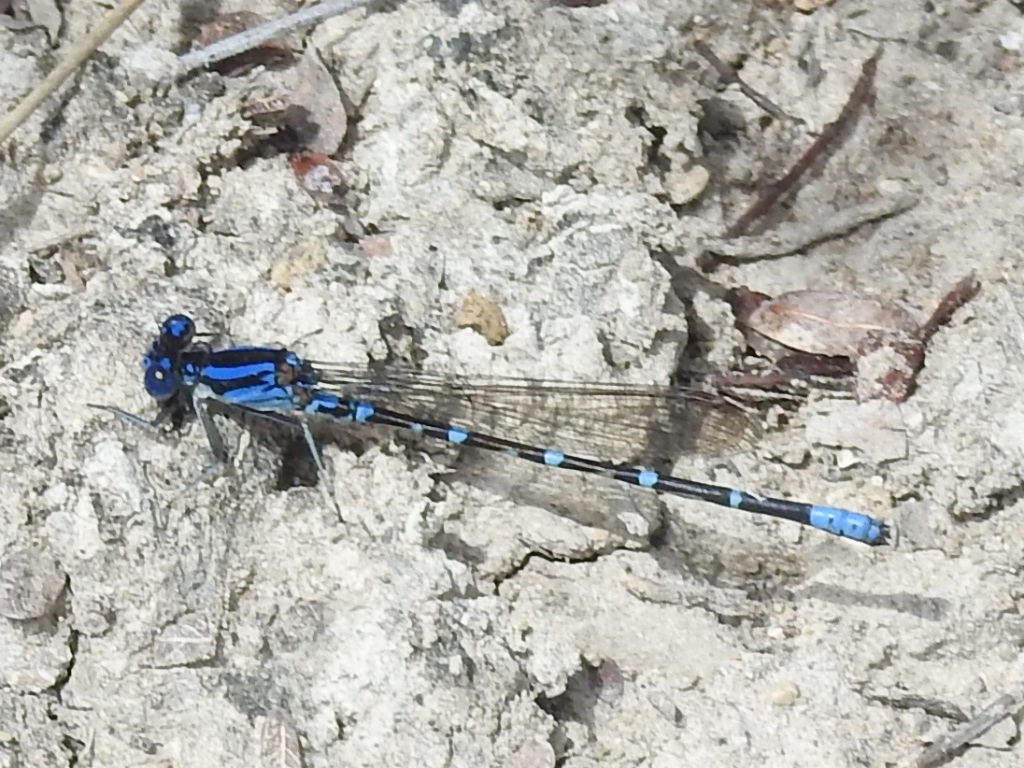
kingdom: Animalia
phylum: Arthropoda
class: Insecta
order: Odonata
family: Coenagrionidae
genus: Argia
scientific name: Argia sedula
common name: Blue-ringed dancer
